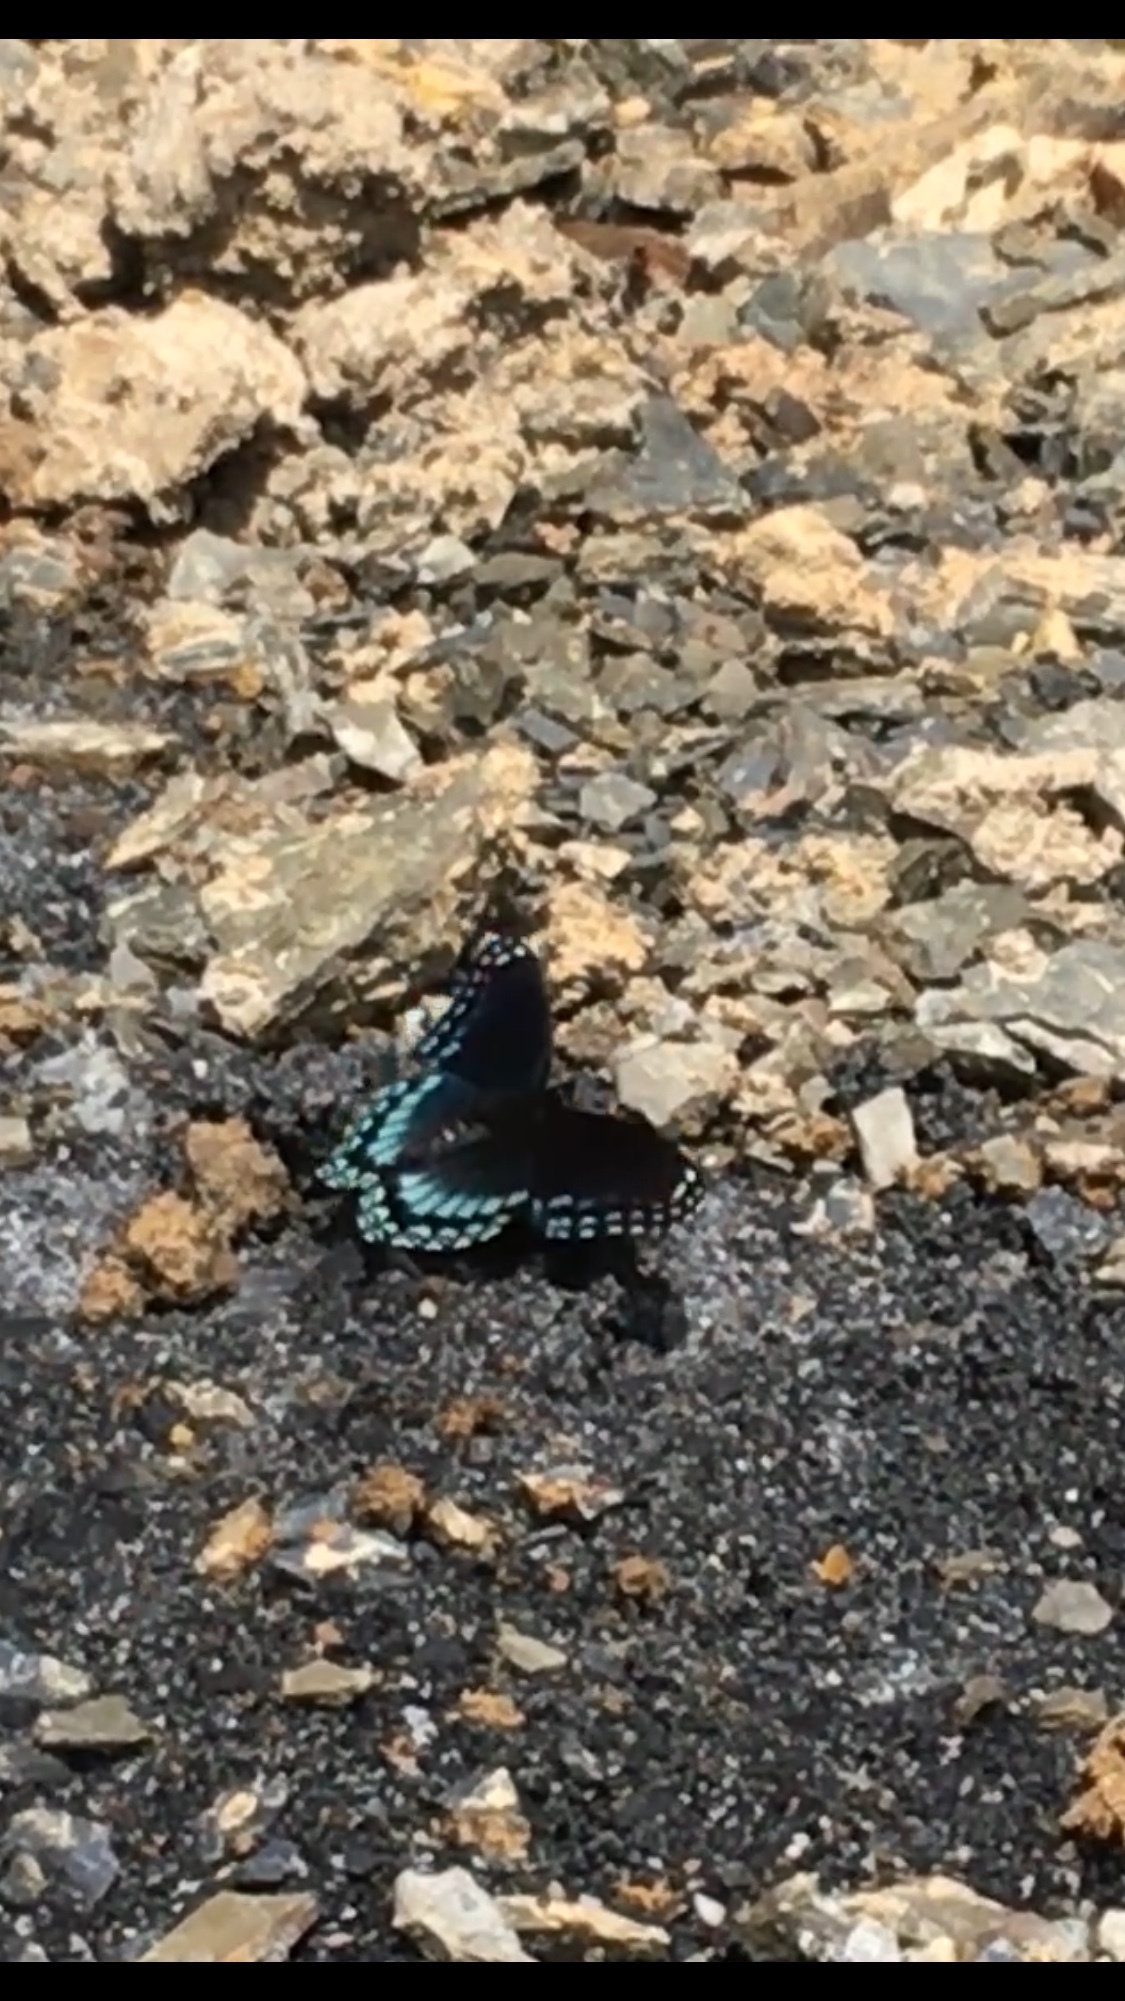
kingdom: Animalia
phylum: Arthropoda
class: Insecta
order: Lepidoptera
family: Nymphalidae
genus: Limenitis
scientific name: Limenitis arthemis
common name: Red-spotted admiral
